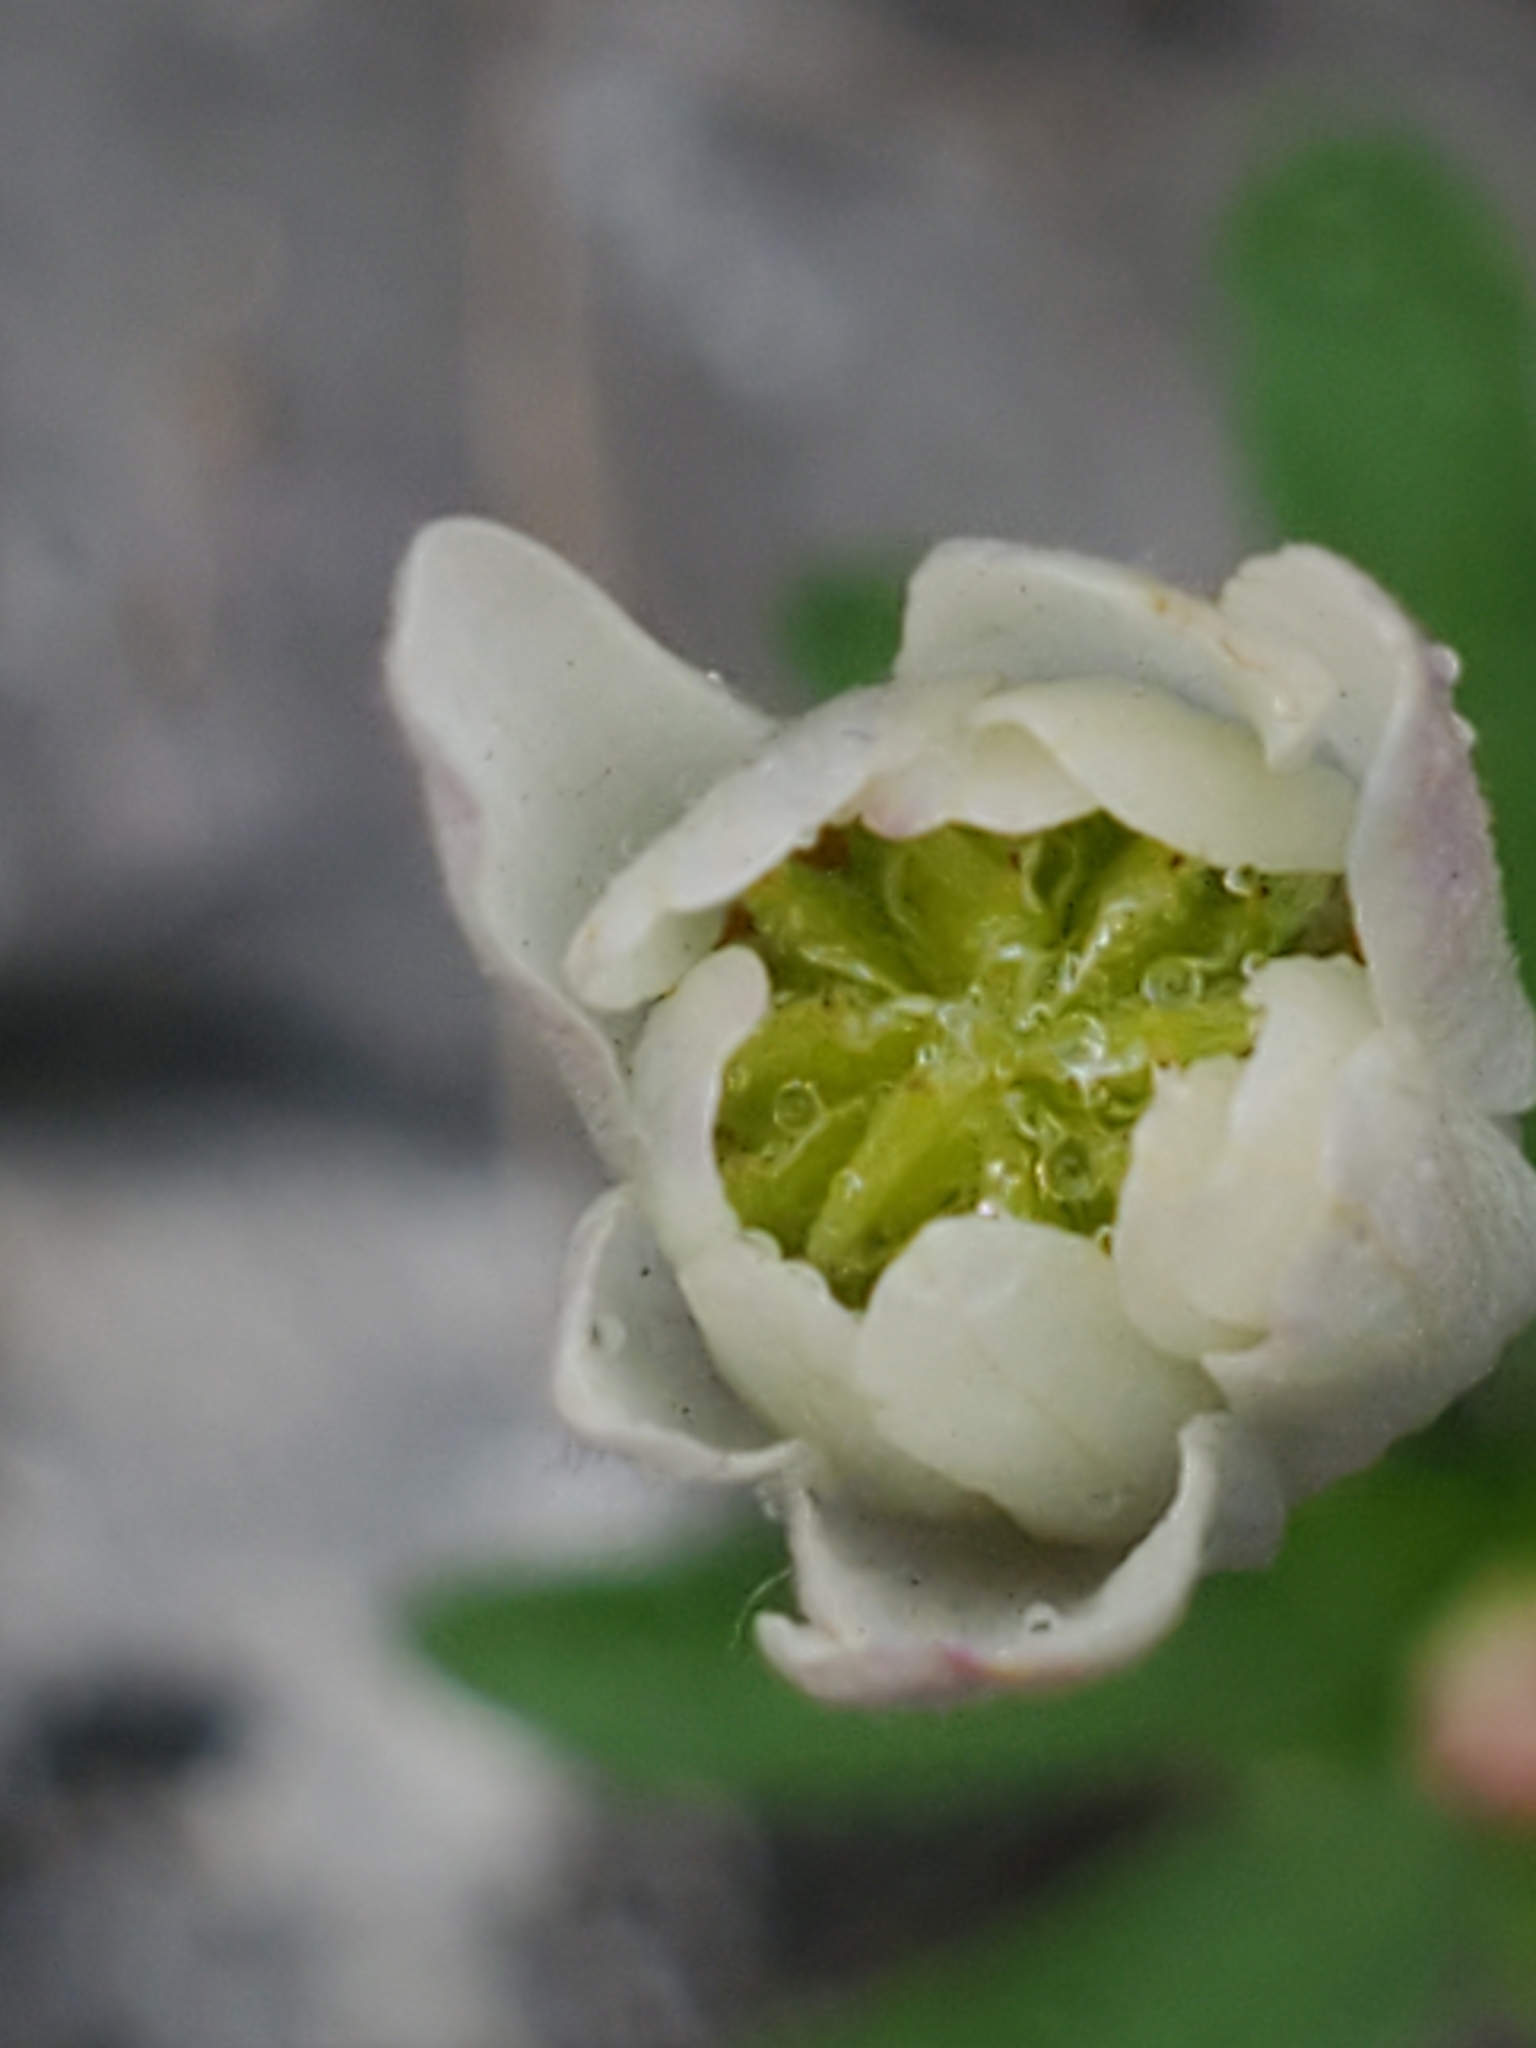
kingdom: Plantae
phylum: Tracheophyta
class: Magnoliopsida
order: Ranunculales
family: Ranunculaceae
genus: Anemone
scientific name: Anemone edwardsiana
